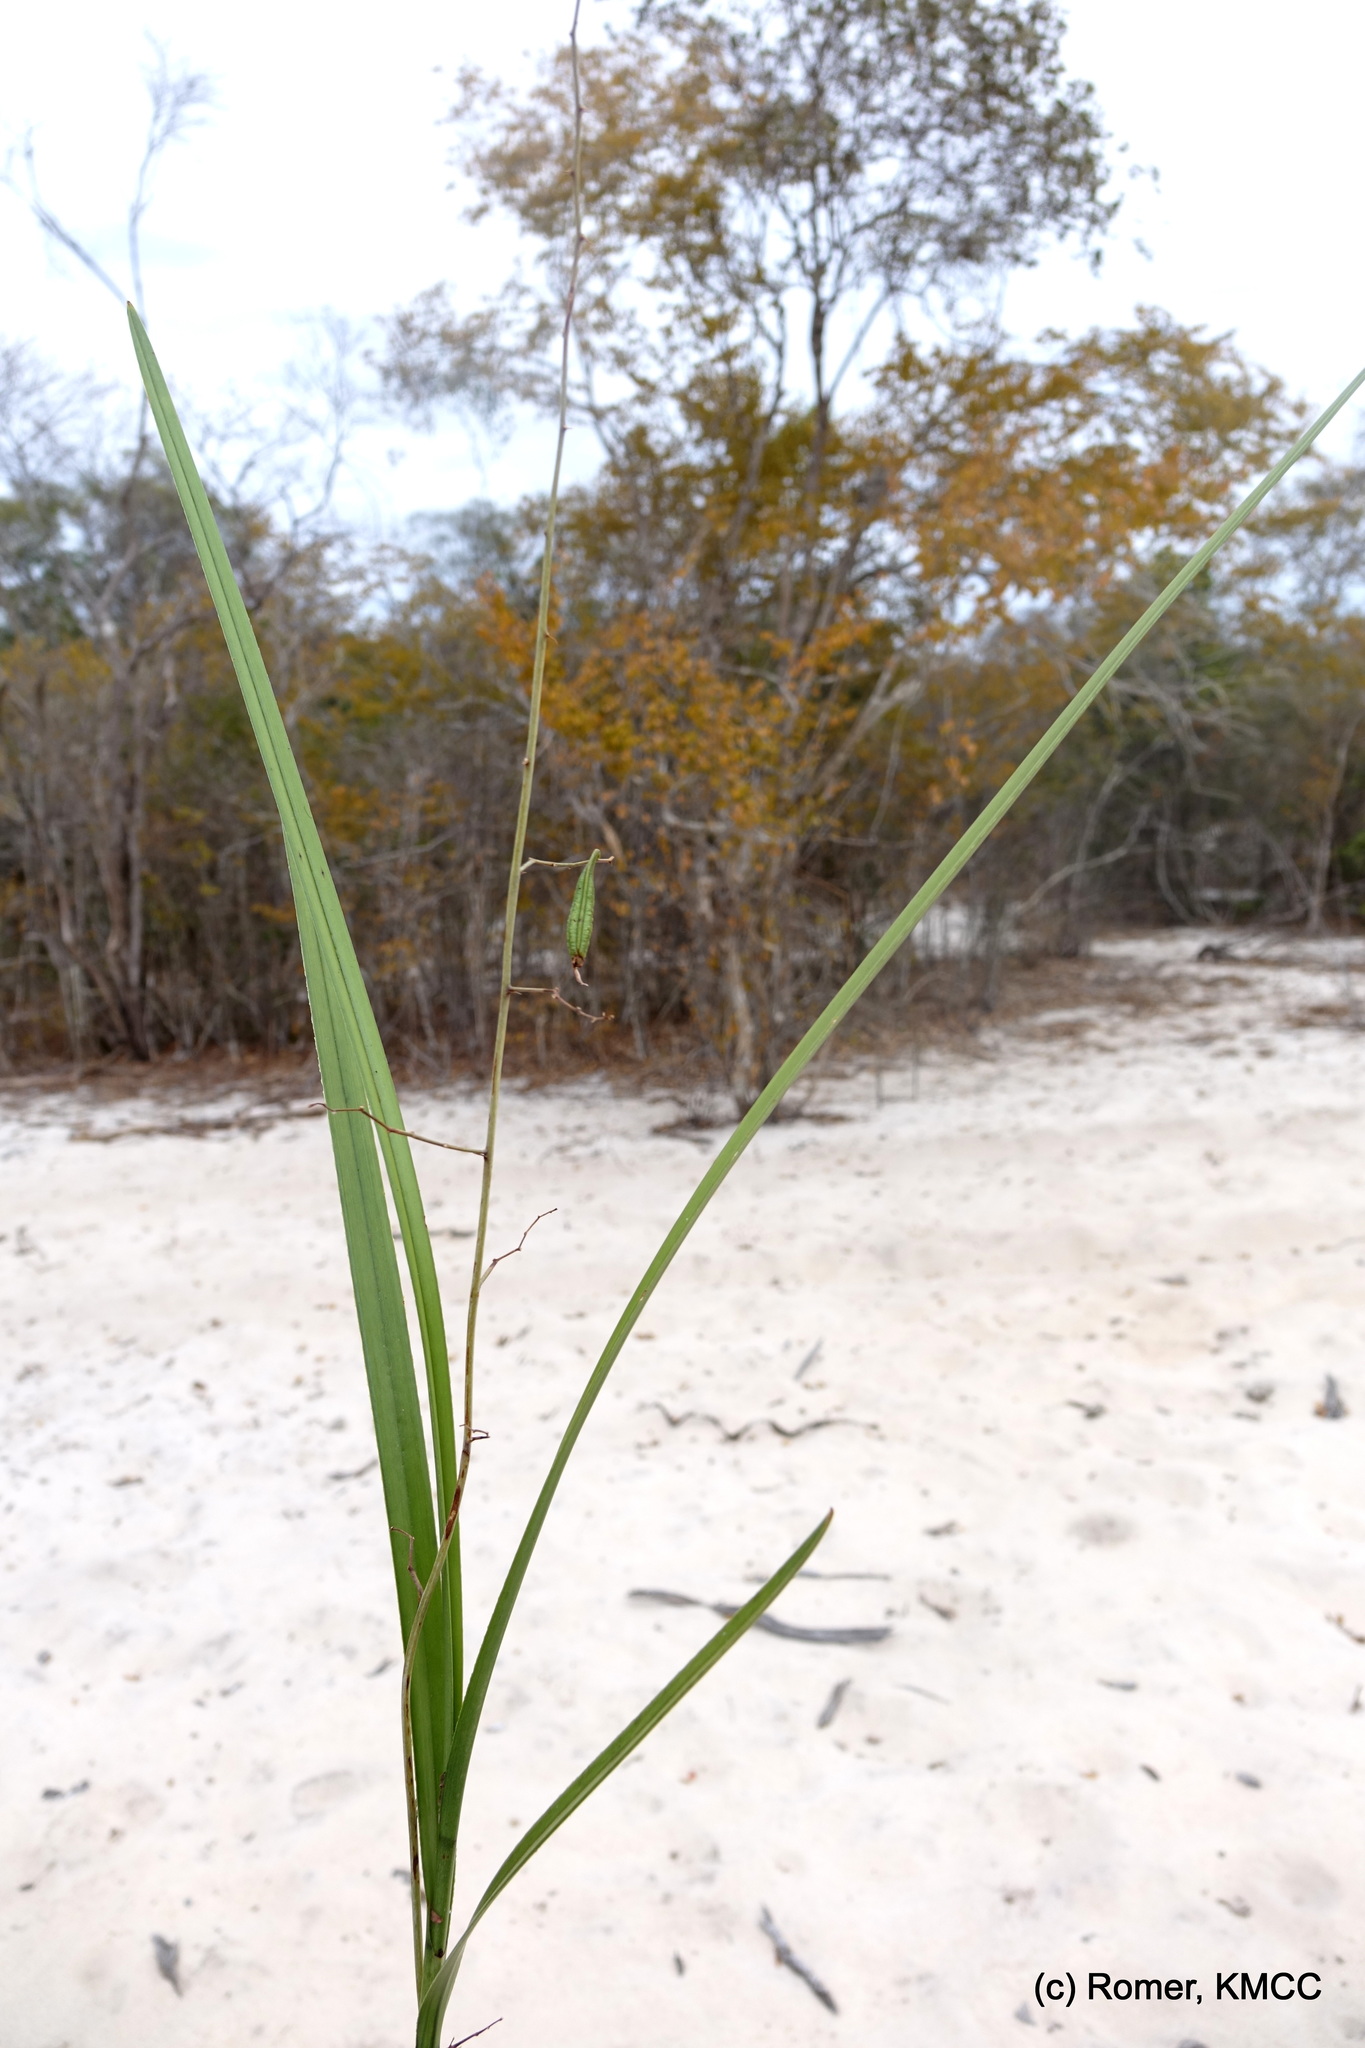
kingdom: Plantae
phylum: Tracheophyta
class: Liliopsida
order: Asparagales
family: Orchidaceae
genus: Eulophia
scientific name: Eulophia beravensis
